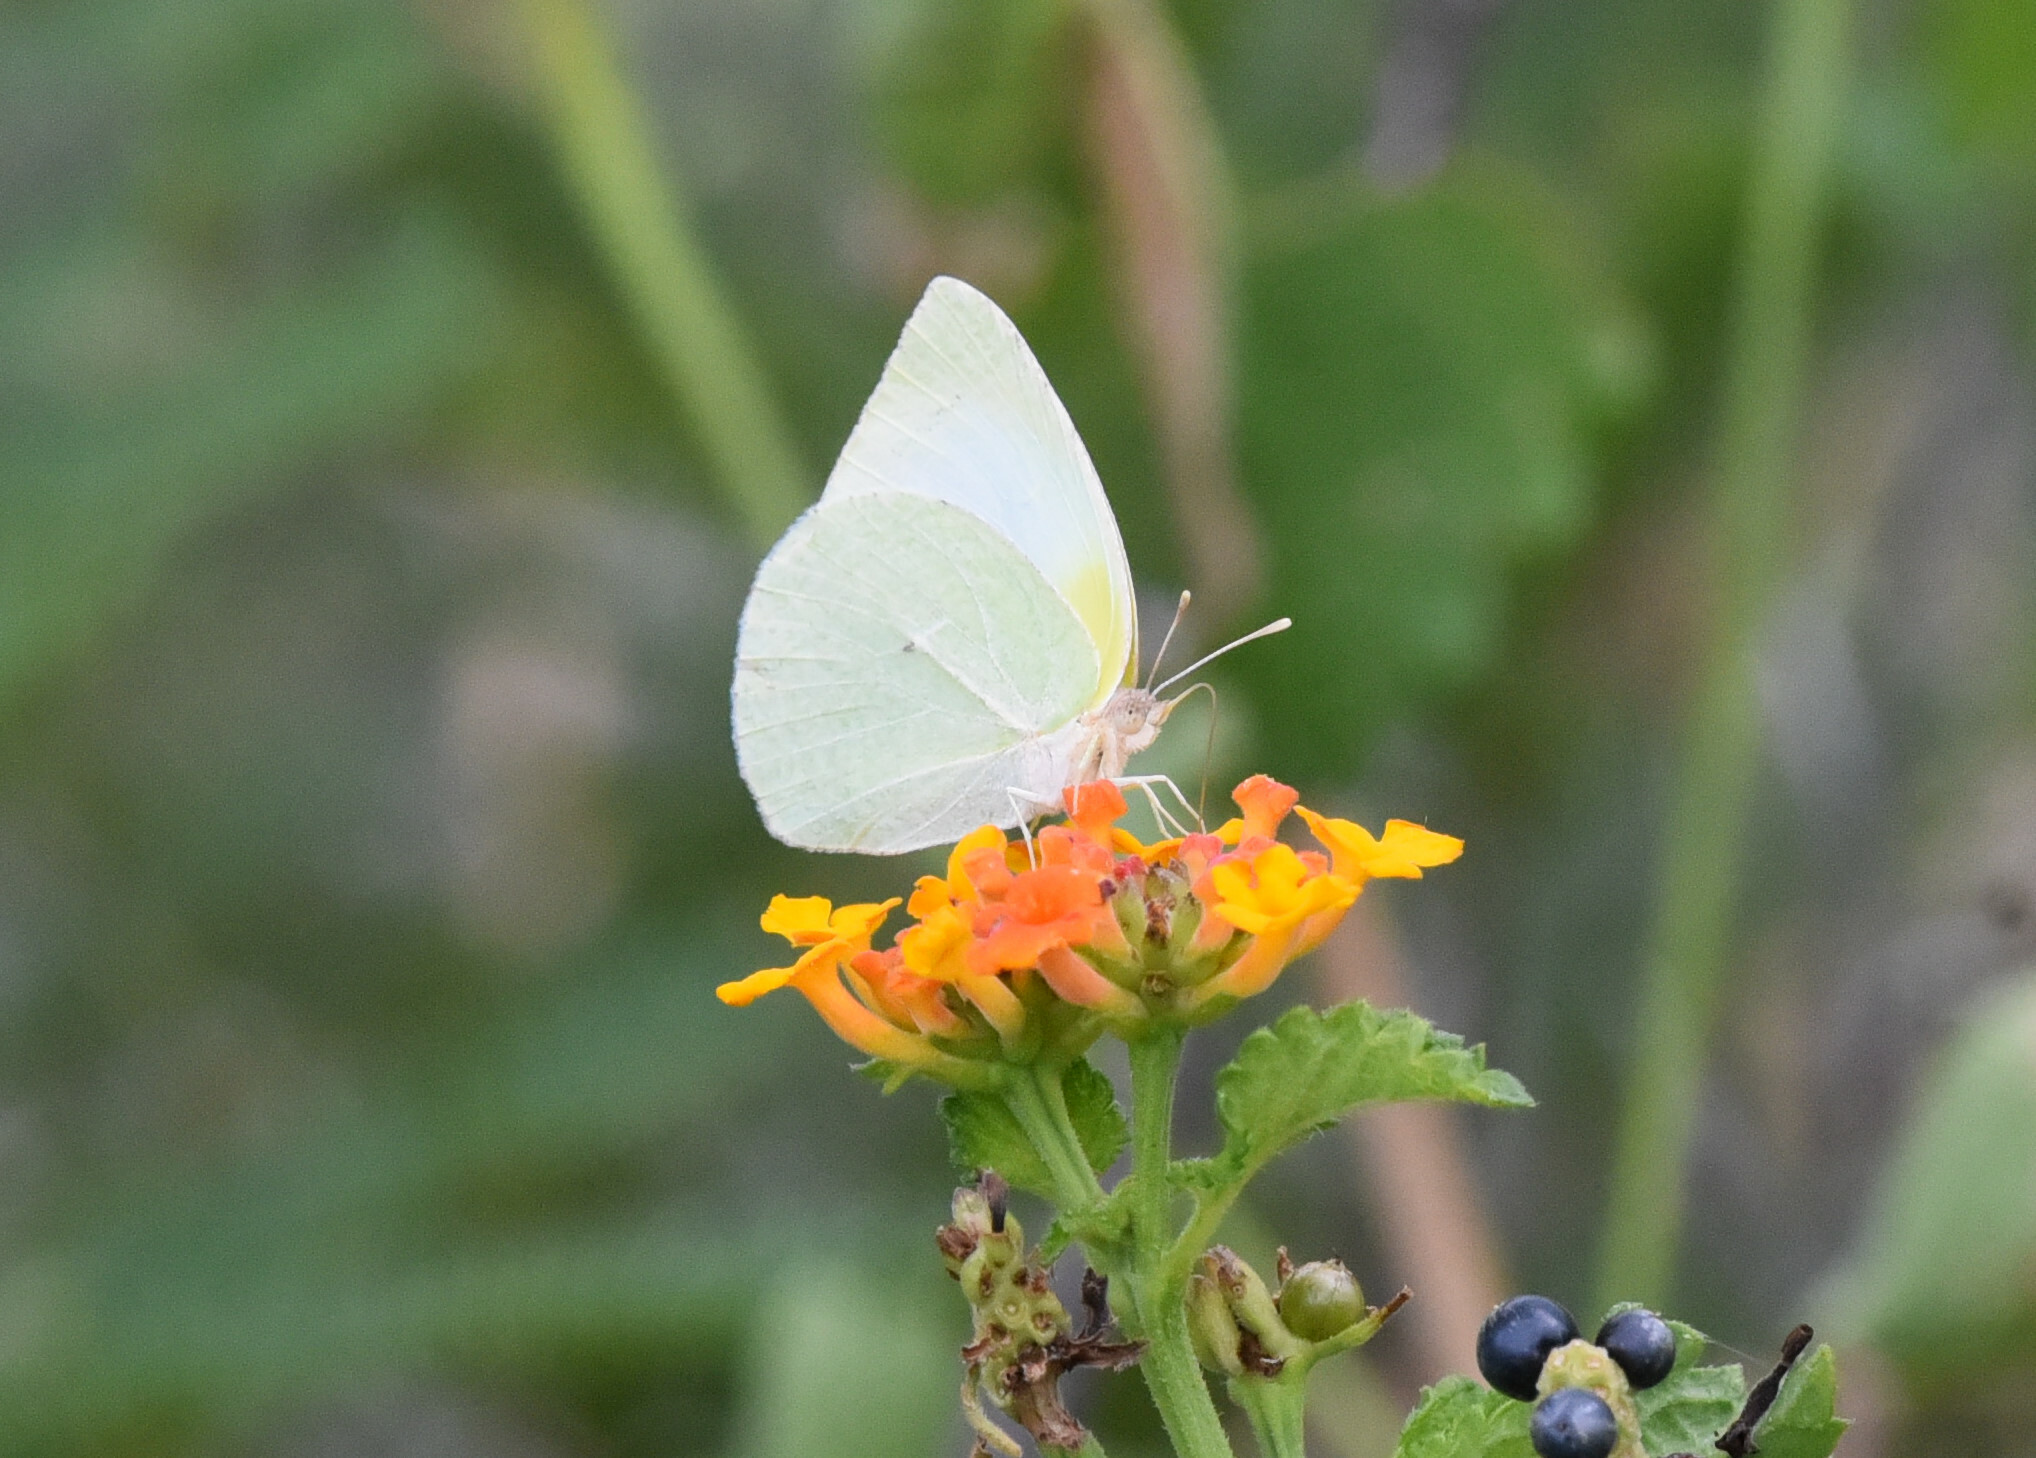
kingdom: Animalia
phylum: Arthropoda
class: Insecta
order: Lepidoptera
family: Pieridae
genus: Kricogonia
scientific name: Kricogonia lyside
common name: Guayacan sulphur,
